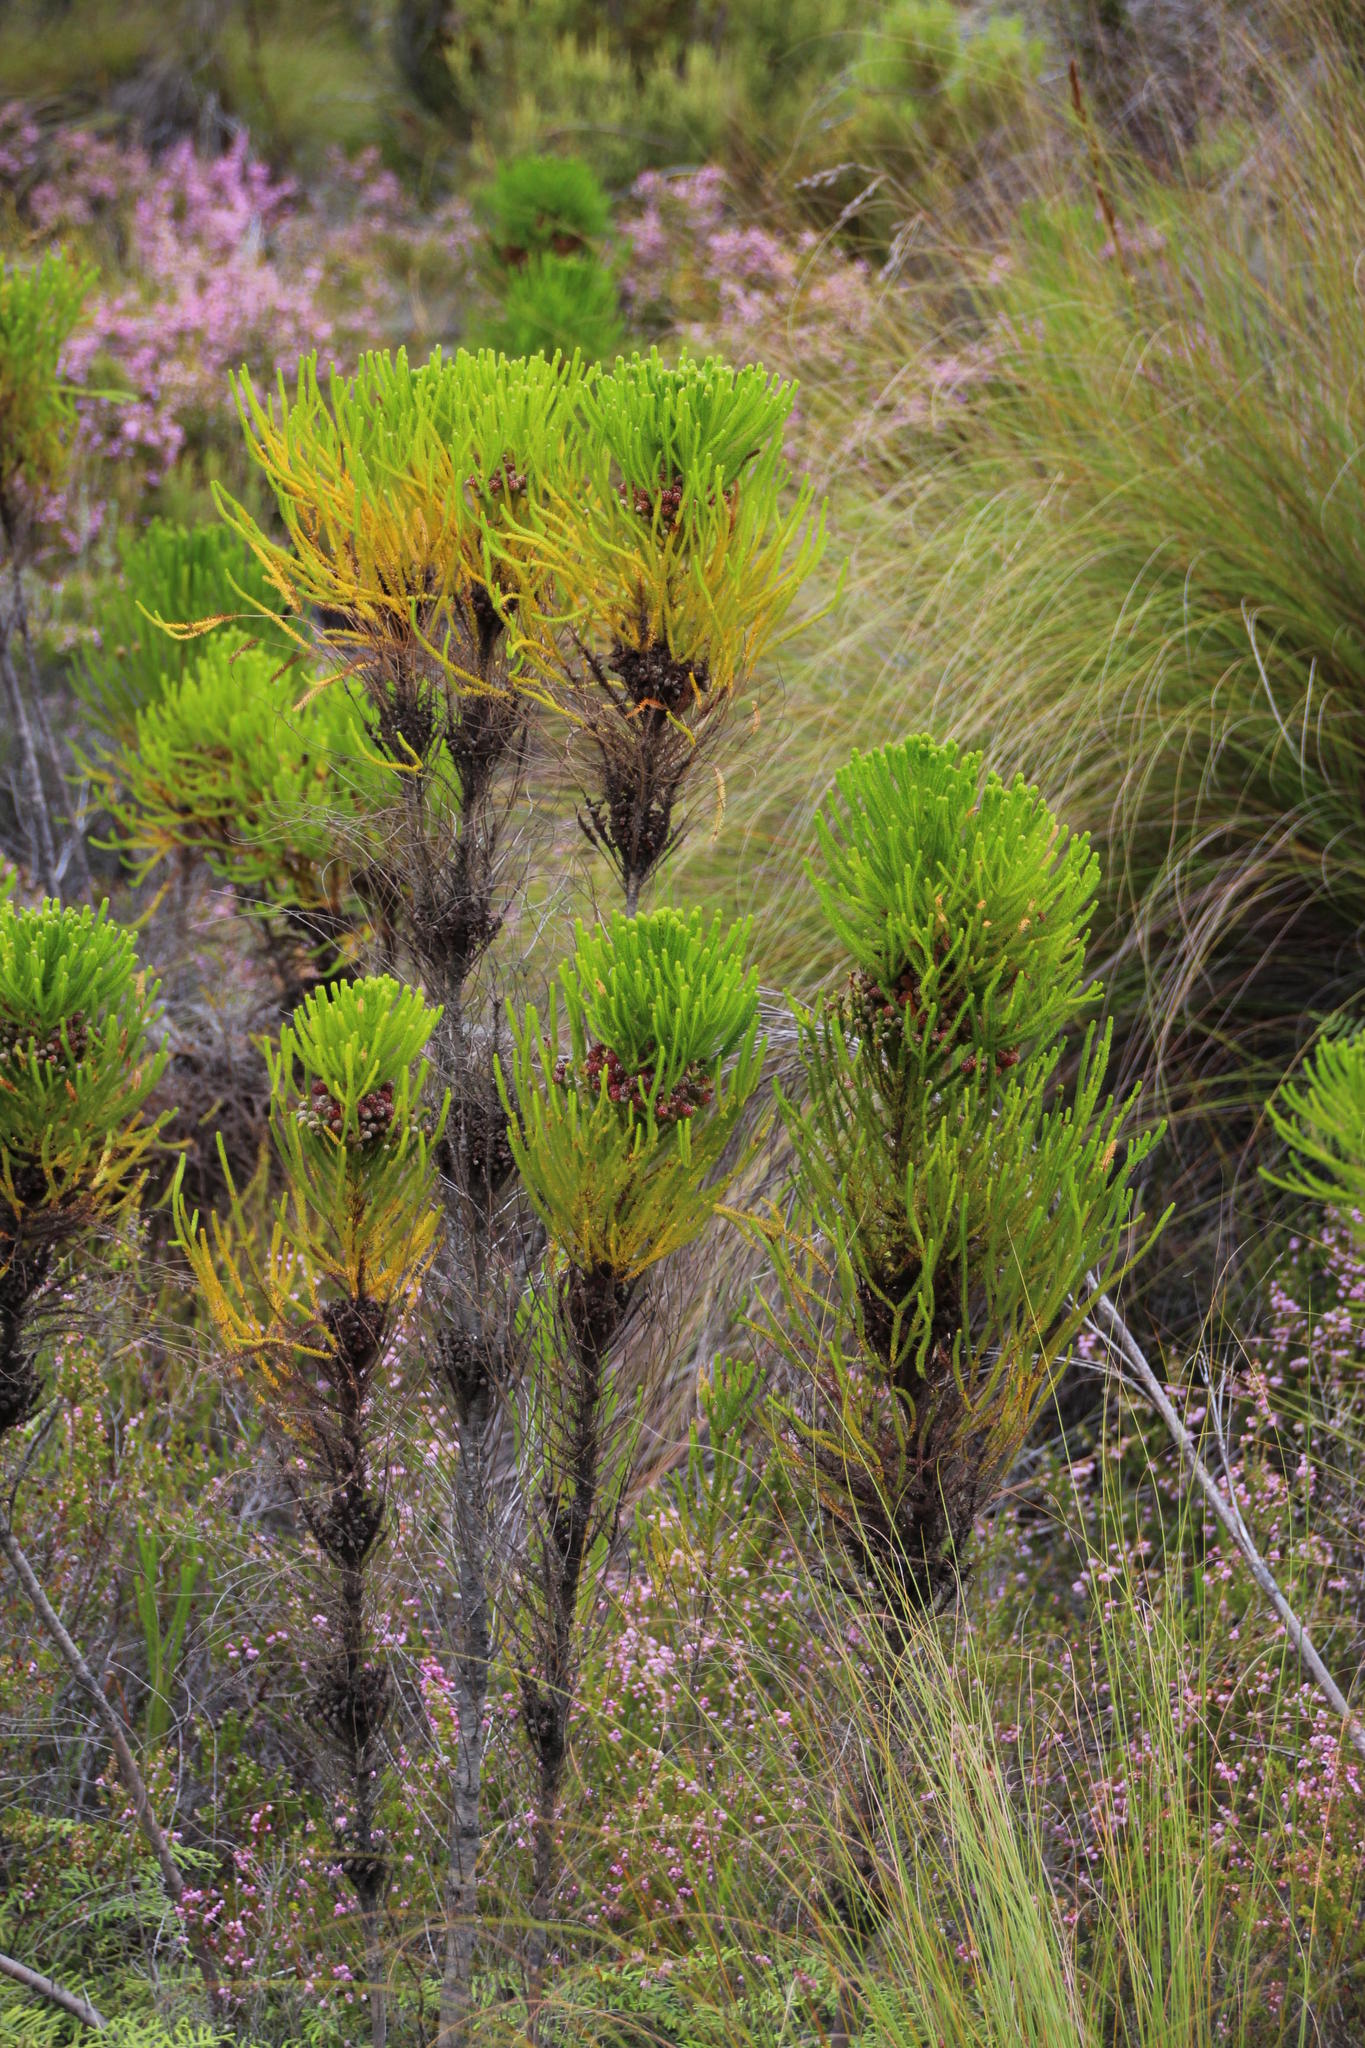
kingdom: Plantae
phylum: Tracheophyta
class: Magnoliopsida
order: Bruniales
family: Bruniaceae
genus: Berzelia
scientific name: Berzelia alopecurioides
